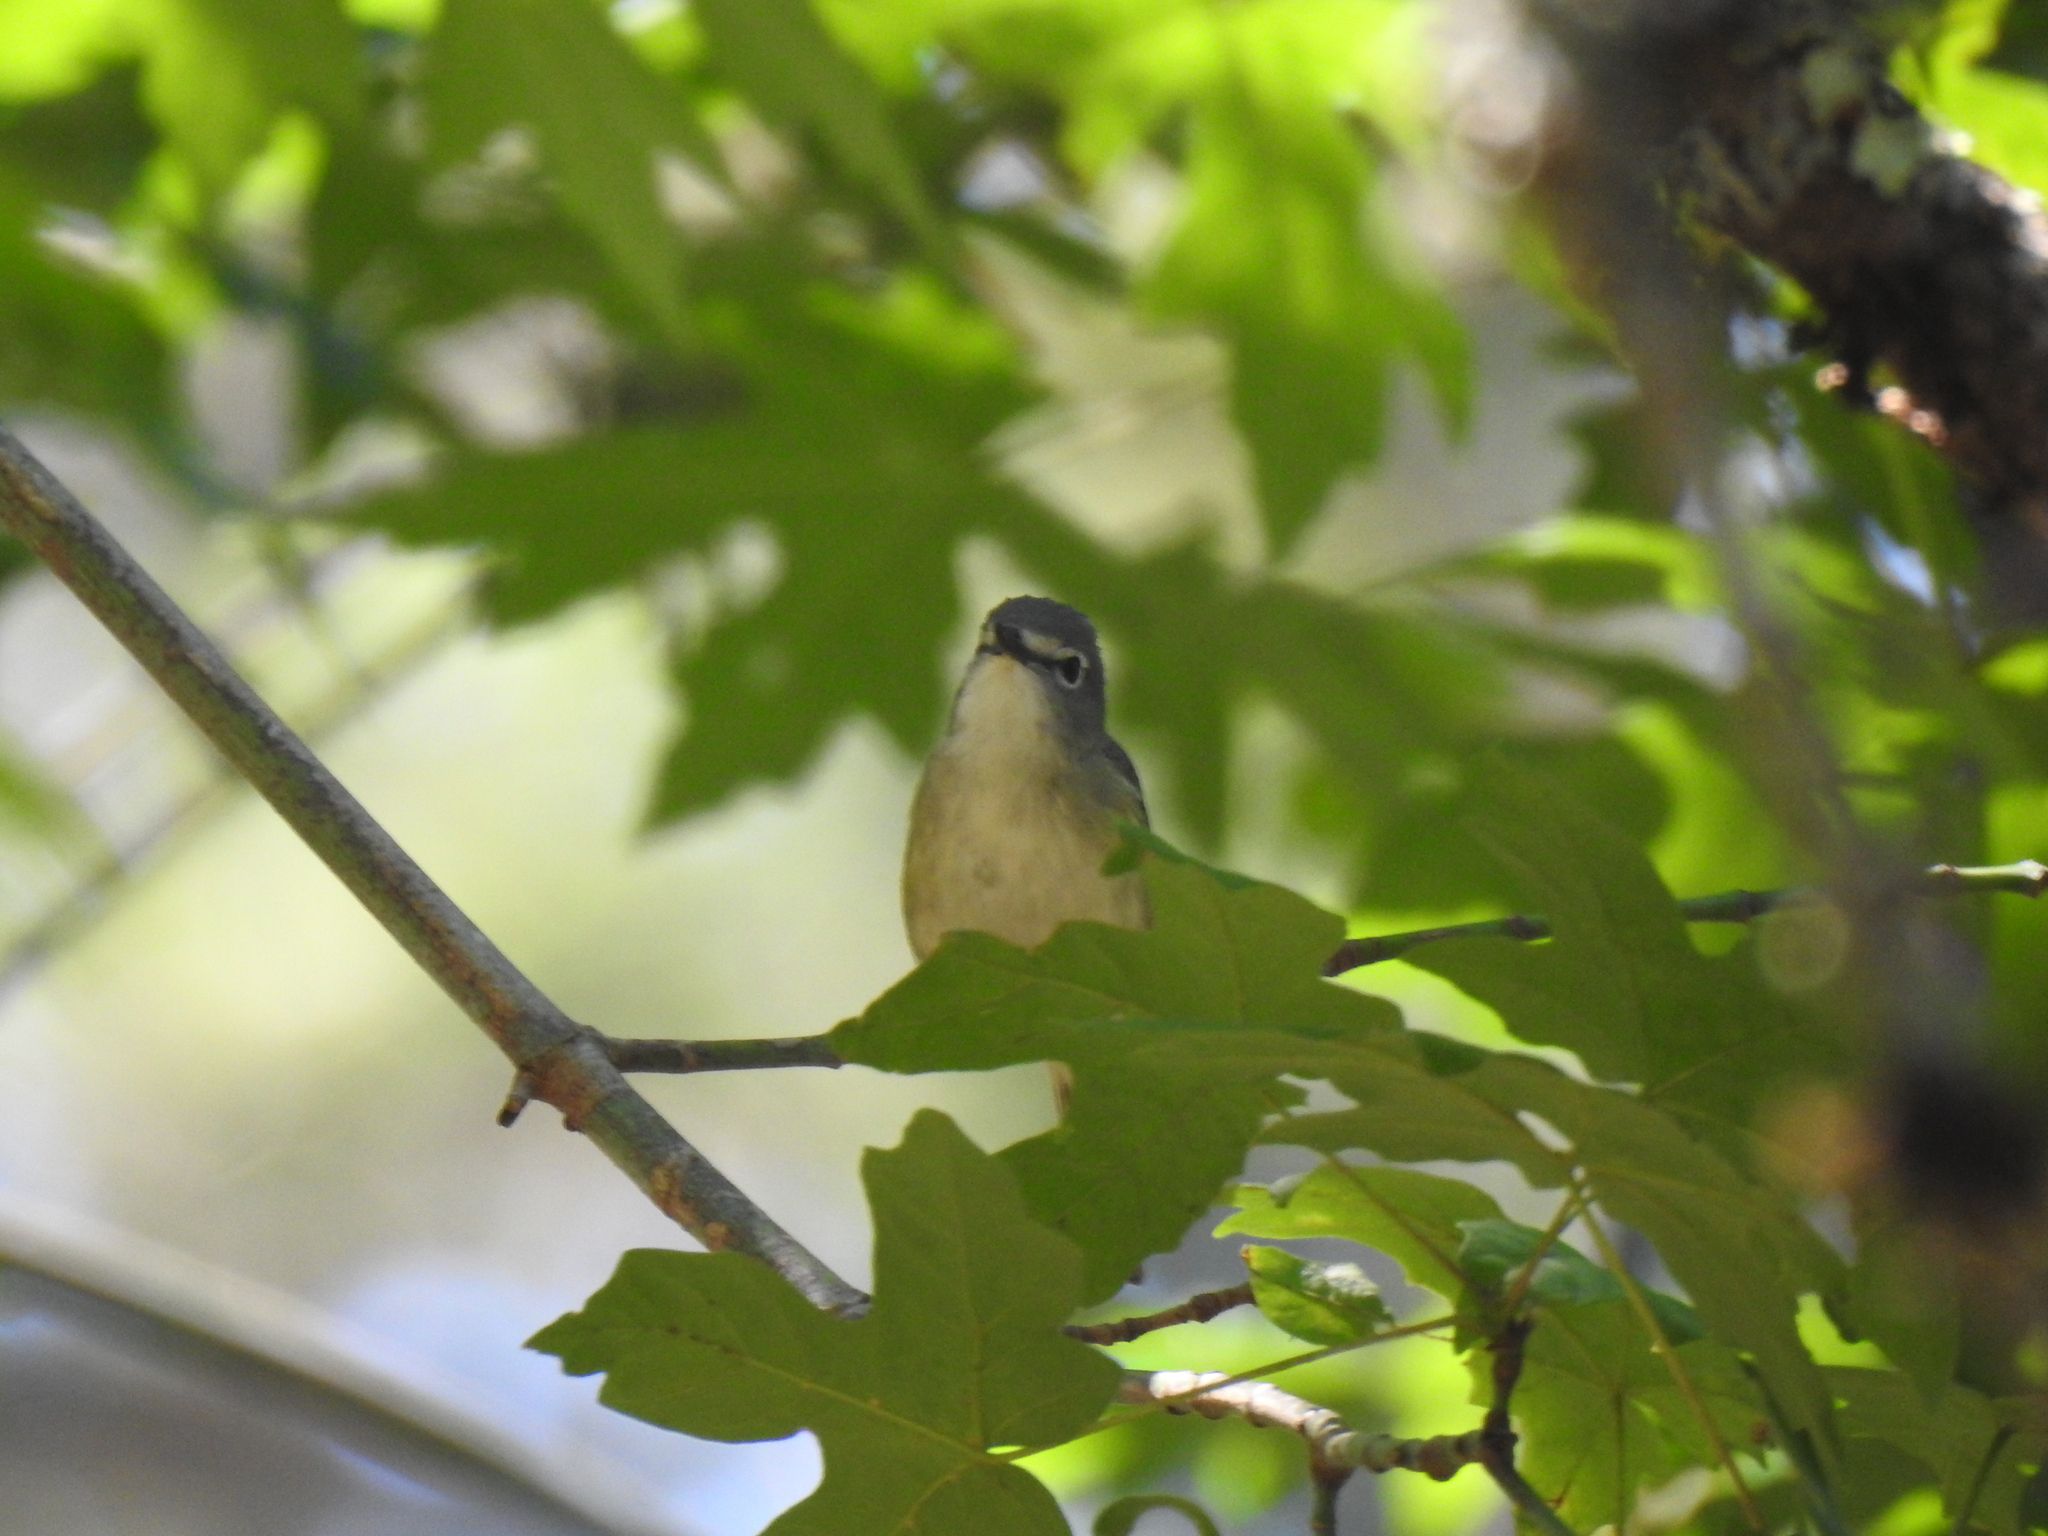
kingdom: Animalia
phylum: Chordata
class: Aves
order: Passeriformes
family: Vireonidae
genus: Vireo
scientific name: Vireo cassinii
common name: Cassin's vireo
